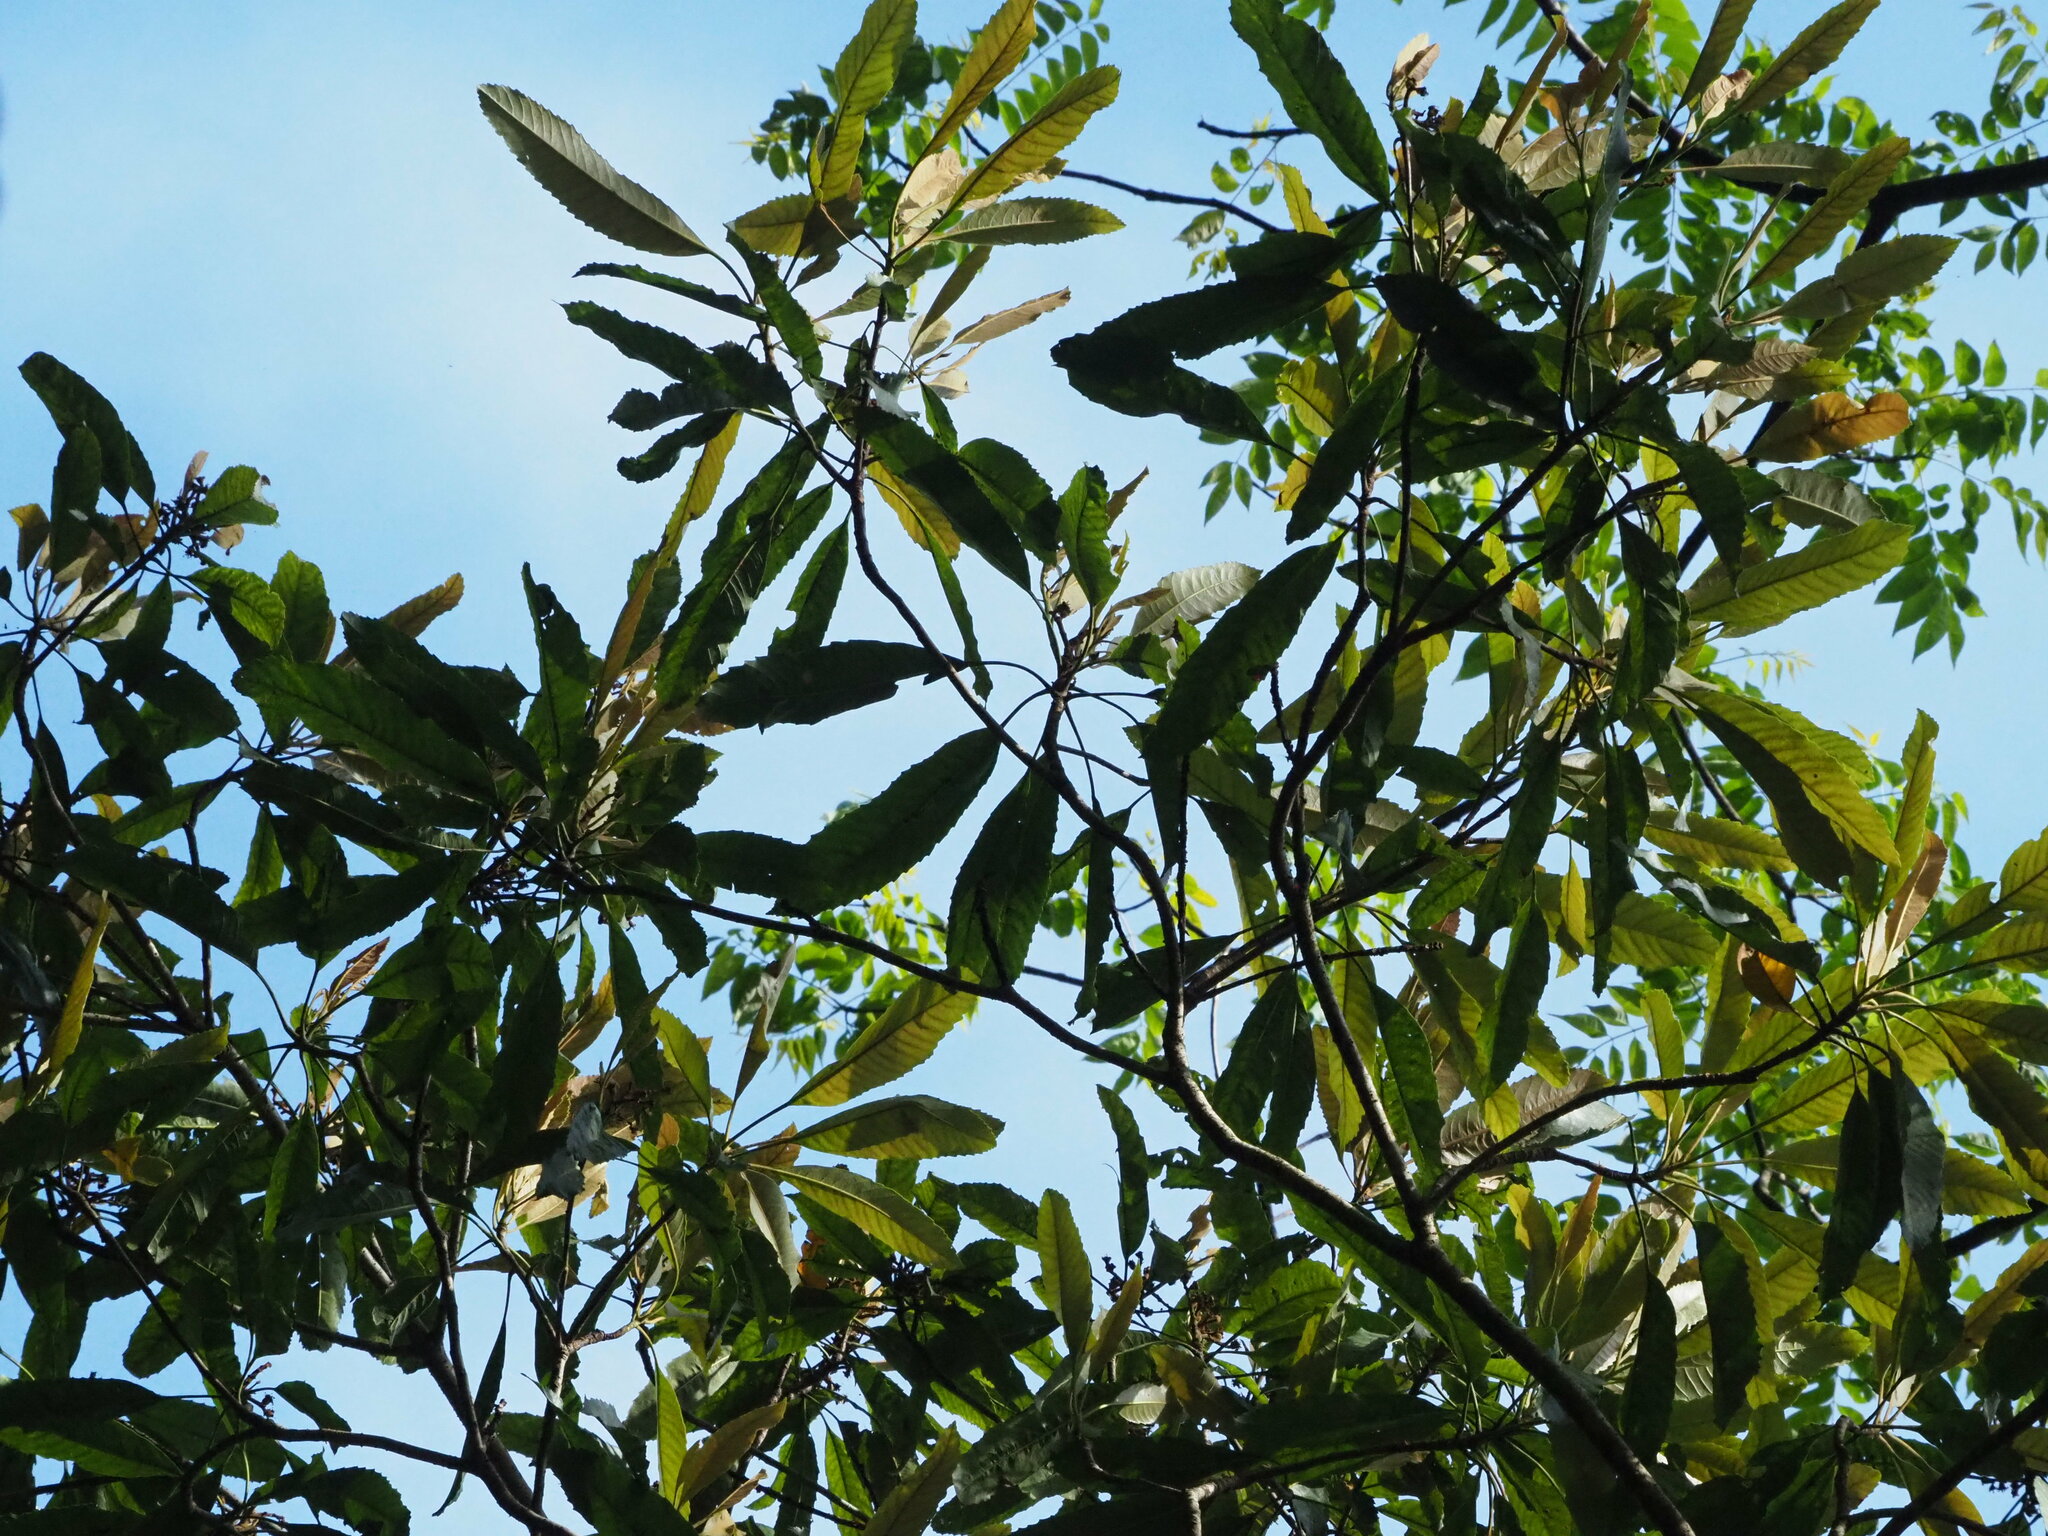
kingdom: Plantae
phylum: Tracheophyta
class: Magnoliopsida
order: Rosales
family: Rosaceae
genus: Rhaphiolepis
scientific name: Rhaphiolepis deflexa
